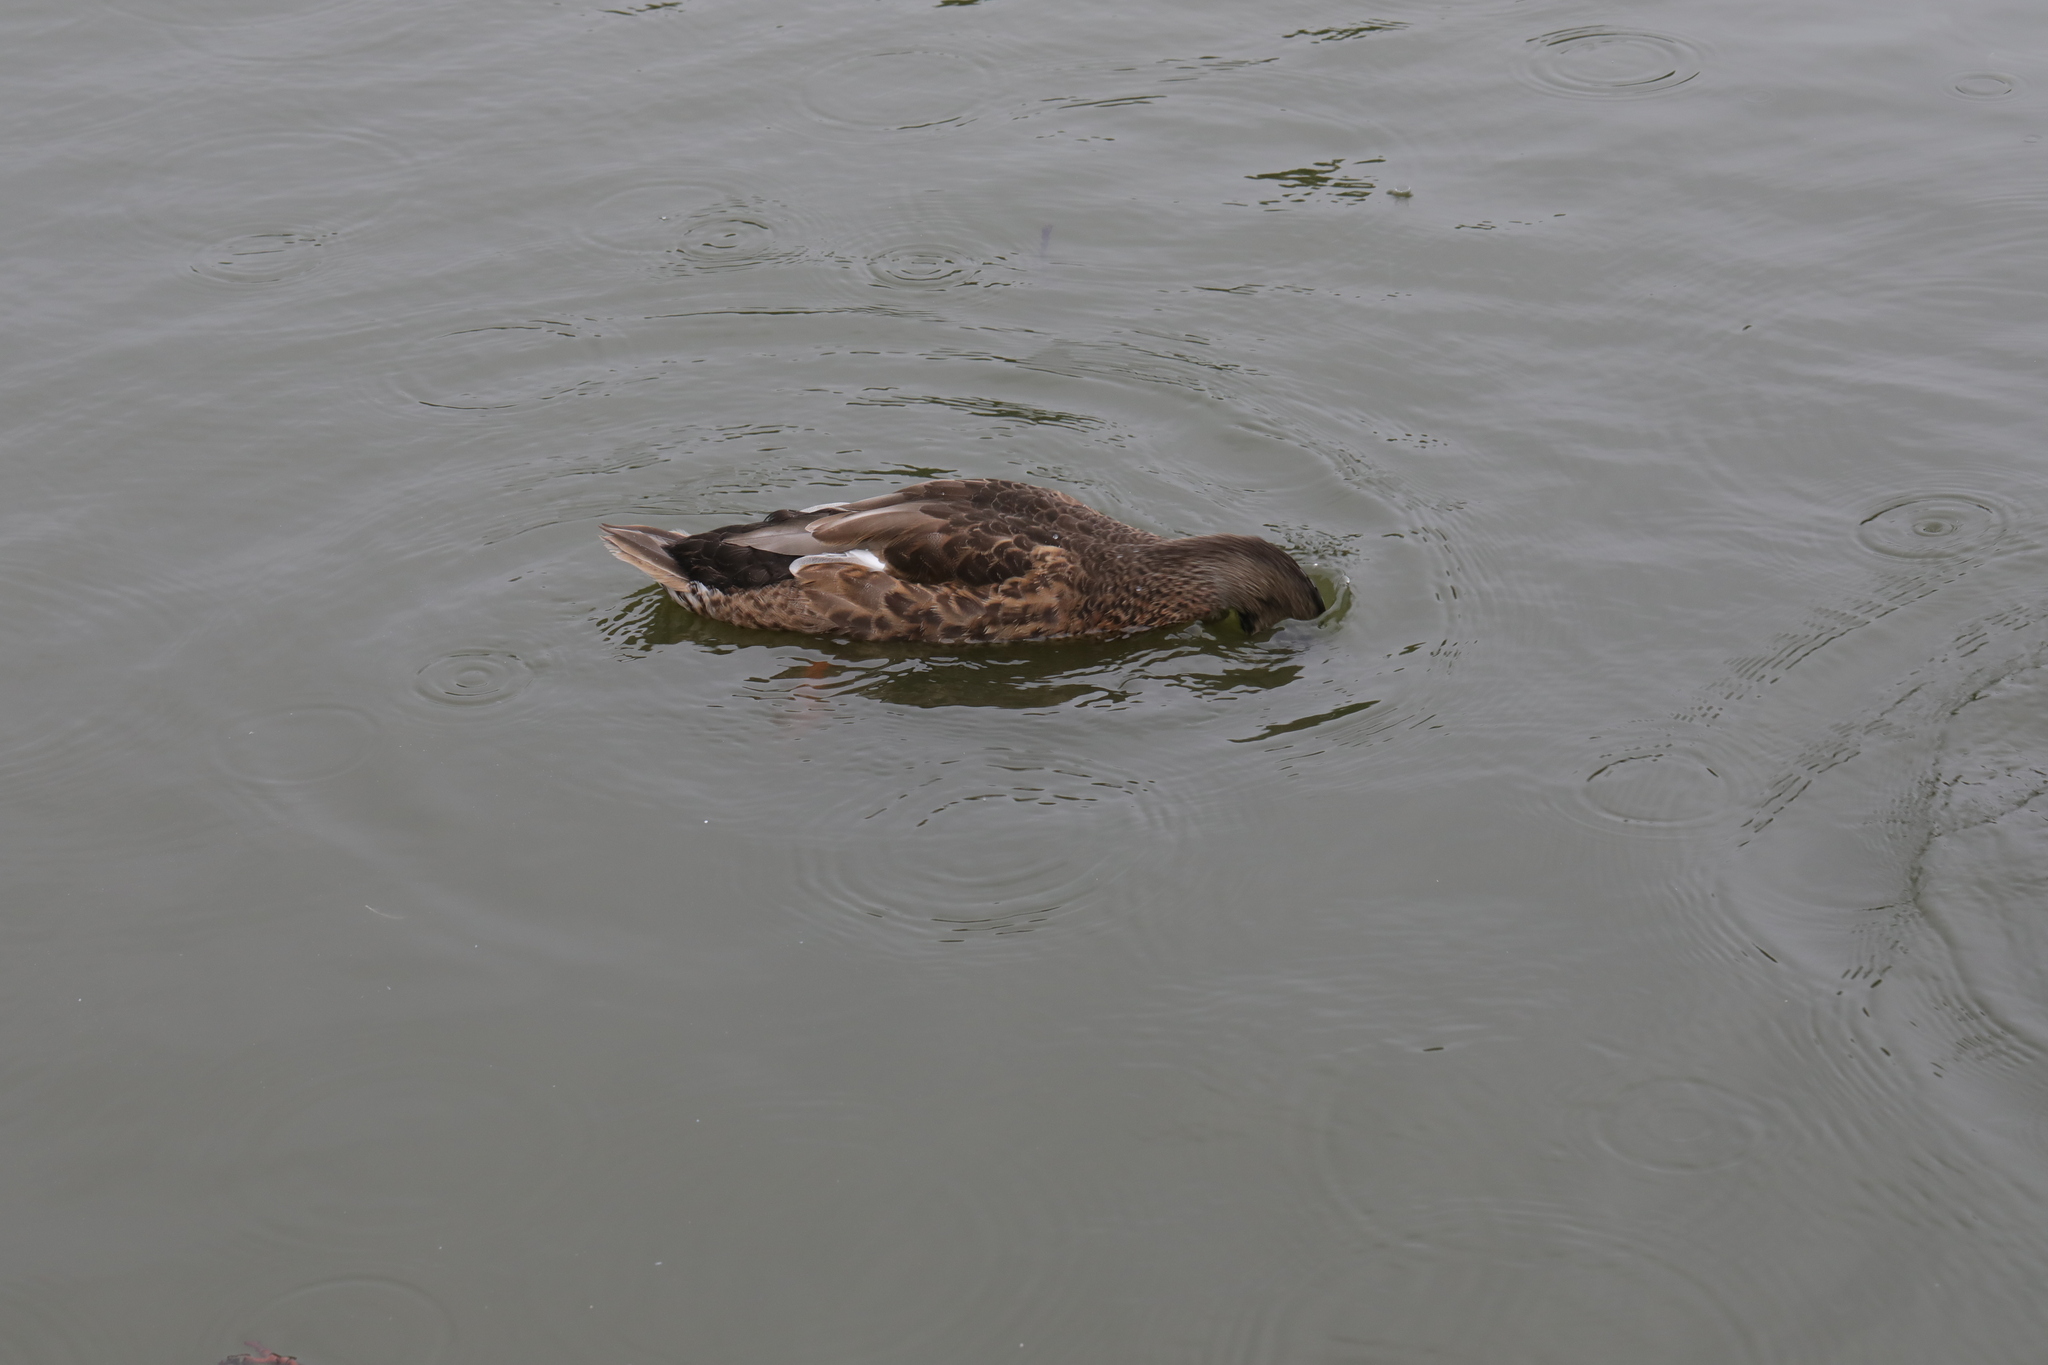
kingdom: Animalia
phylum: Chordata
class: Aves
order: Anseriformes
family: Anatidae
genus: Anas
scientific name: Anas platyrhynchos
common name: Mallard
